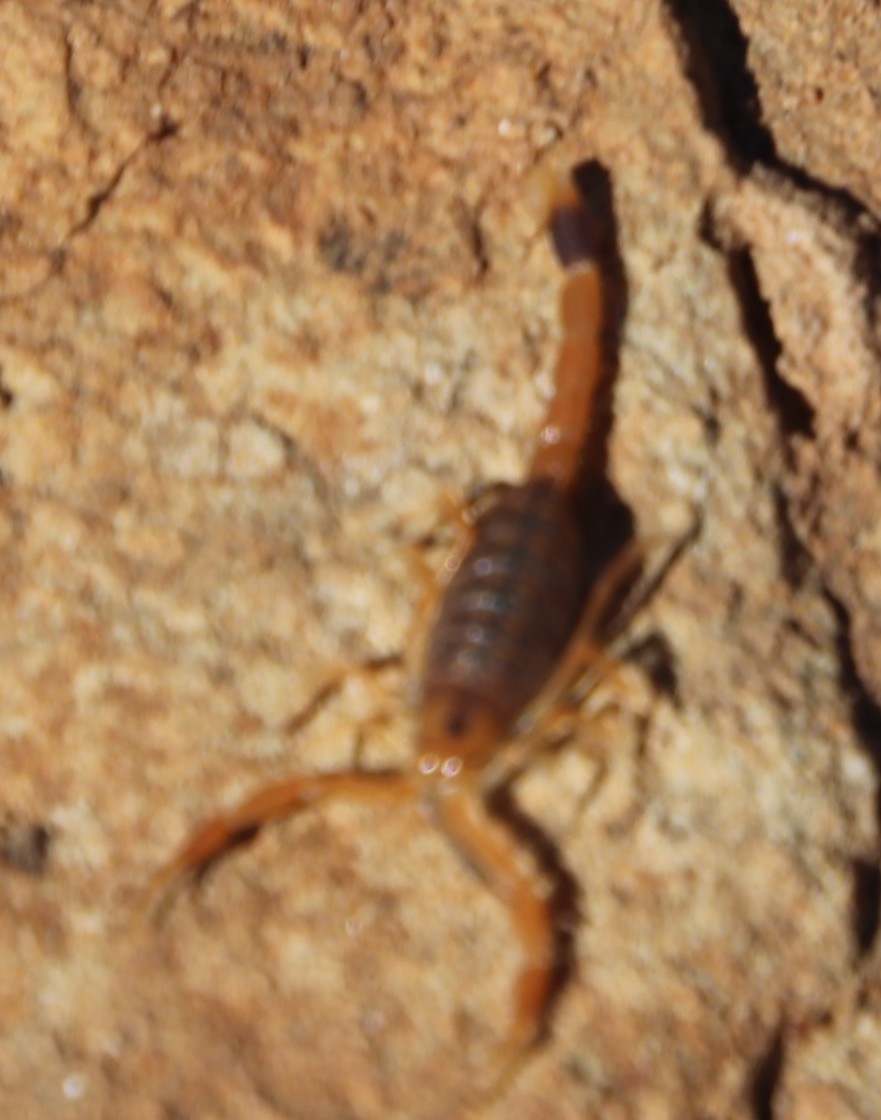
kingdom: Animalia
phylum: Arthropoda
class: Arachnida
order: Scorpiones
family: Buthidae
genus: Uroplectes
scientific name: Uroplectes carinatus
